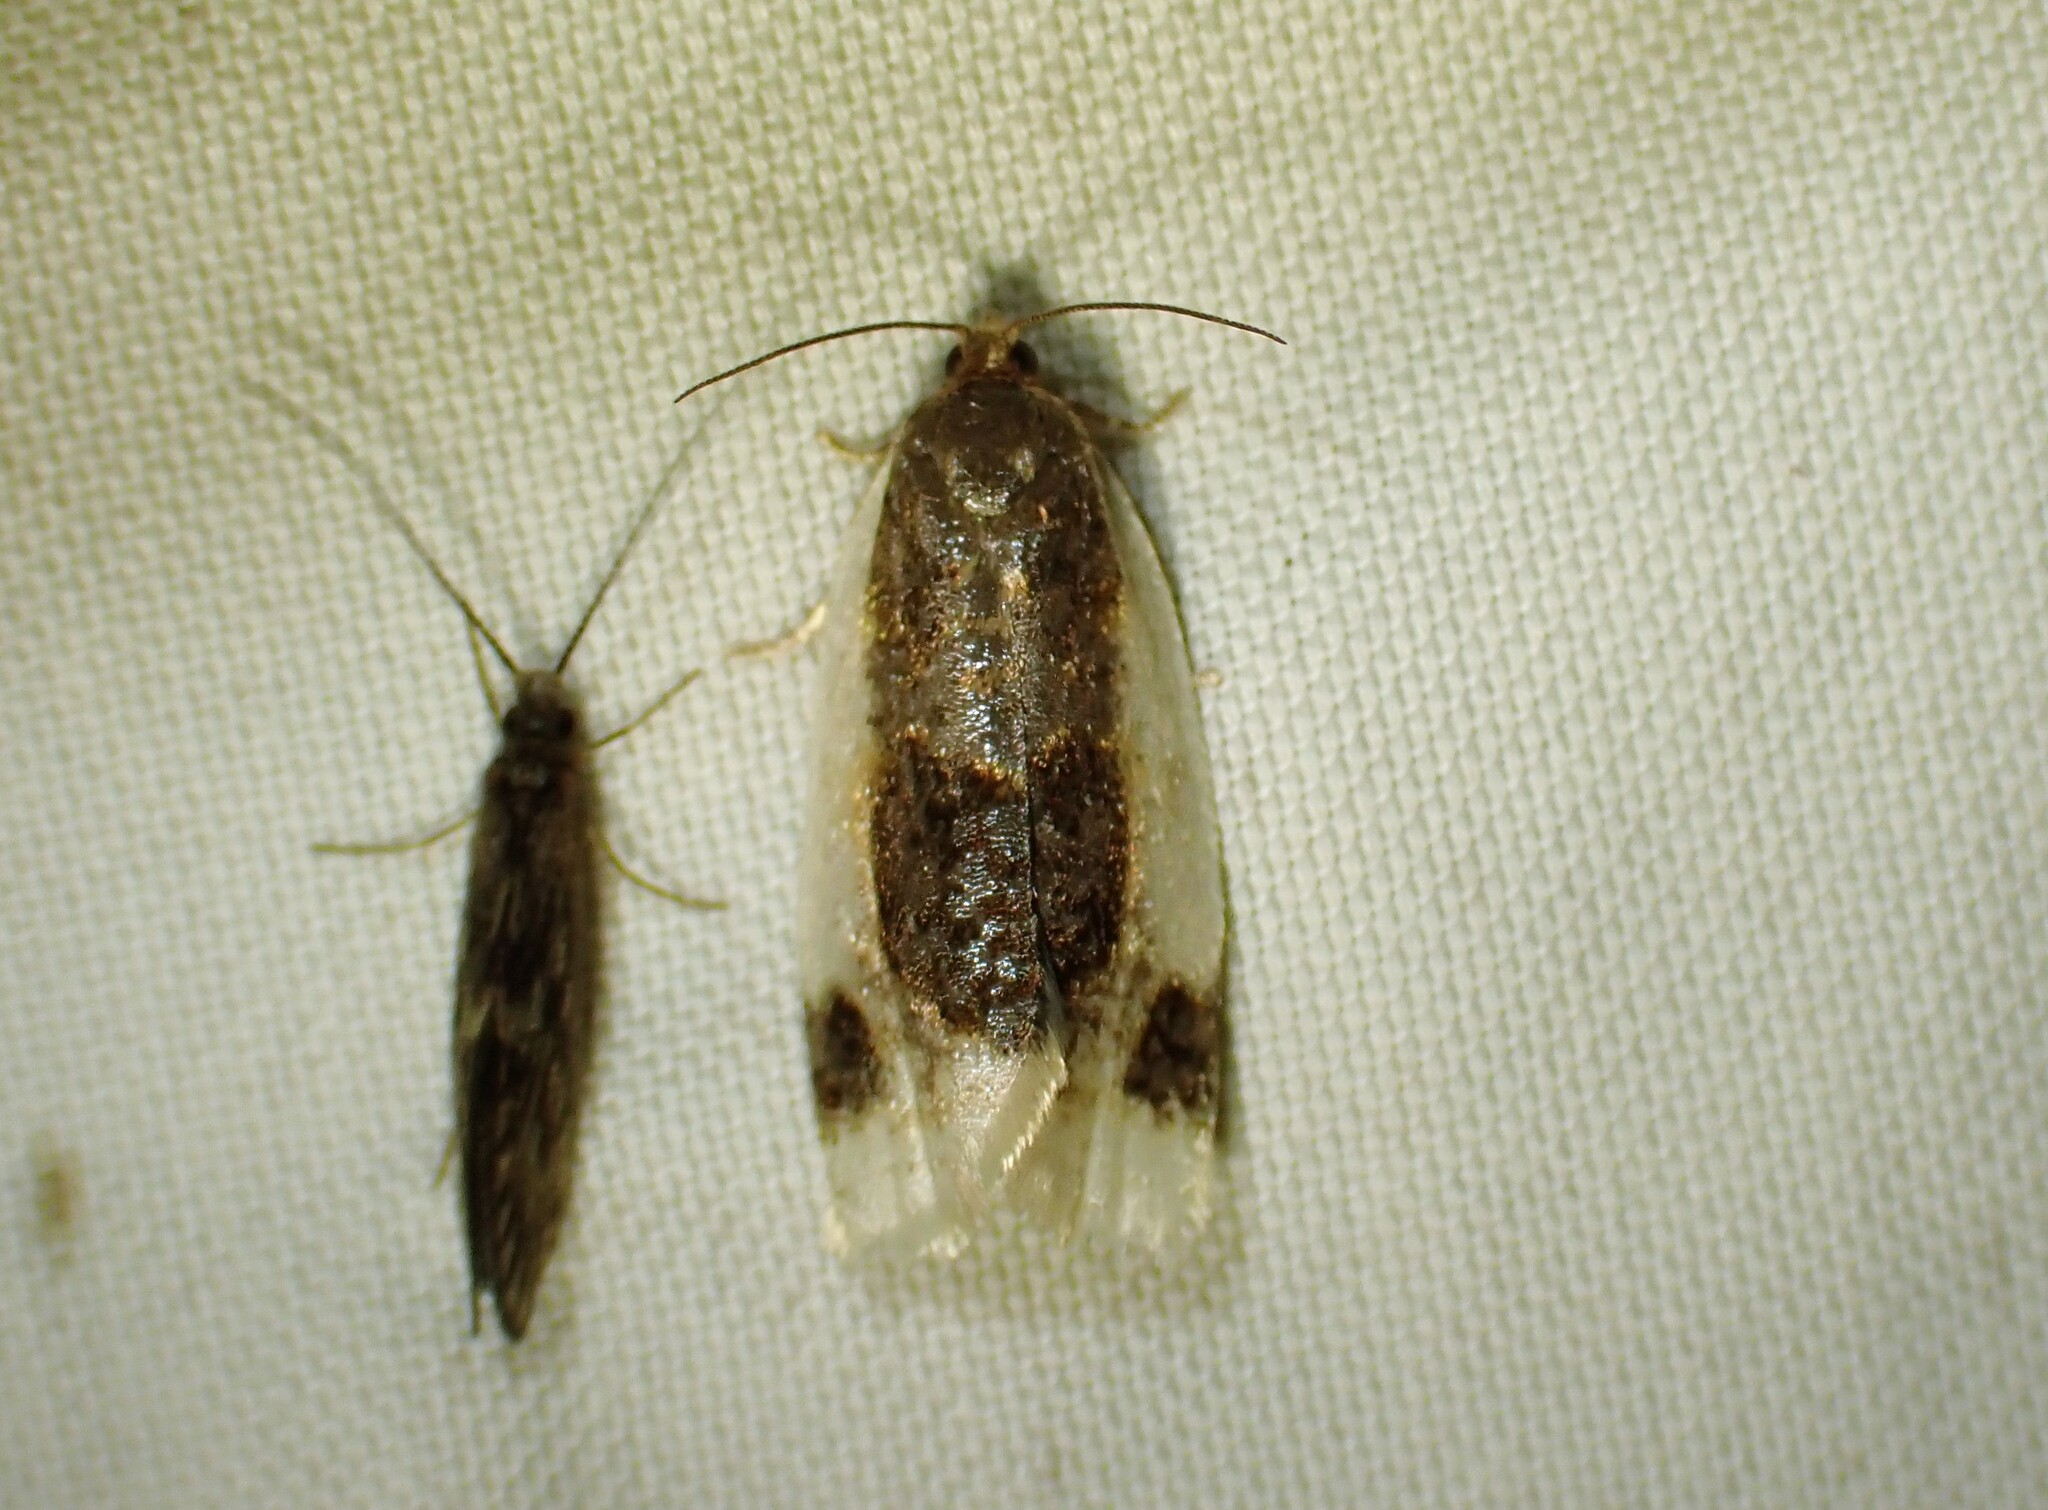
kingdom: Animalia
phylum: Arthropoda
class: Insecta
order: Lepidoptera
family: Tortricidae
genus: Clepsis
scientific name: Clepsis melaleucanus
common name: American apple tortrix
